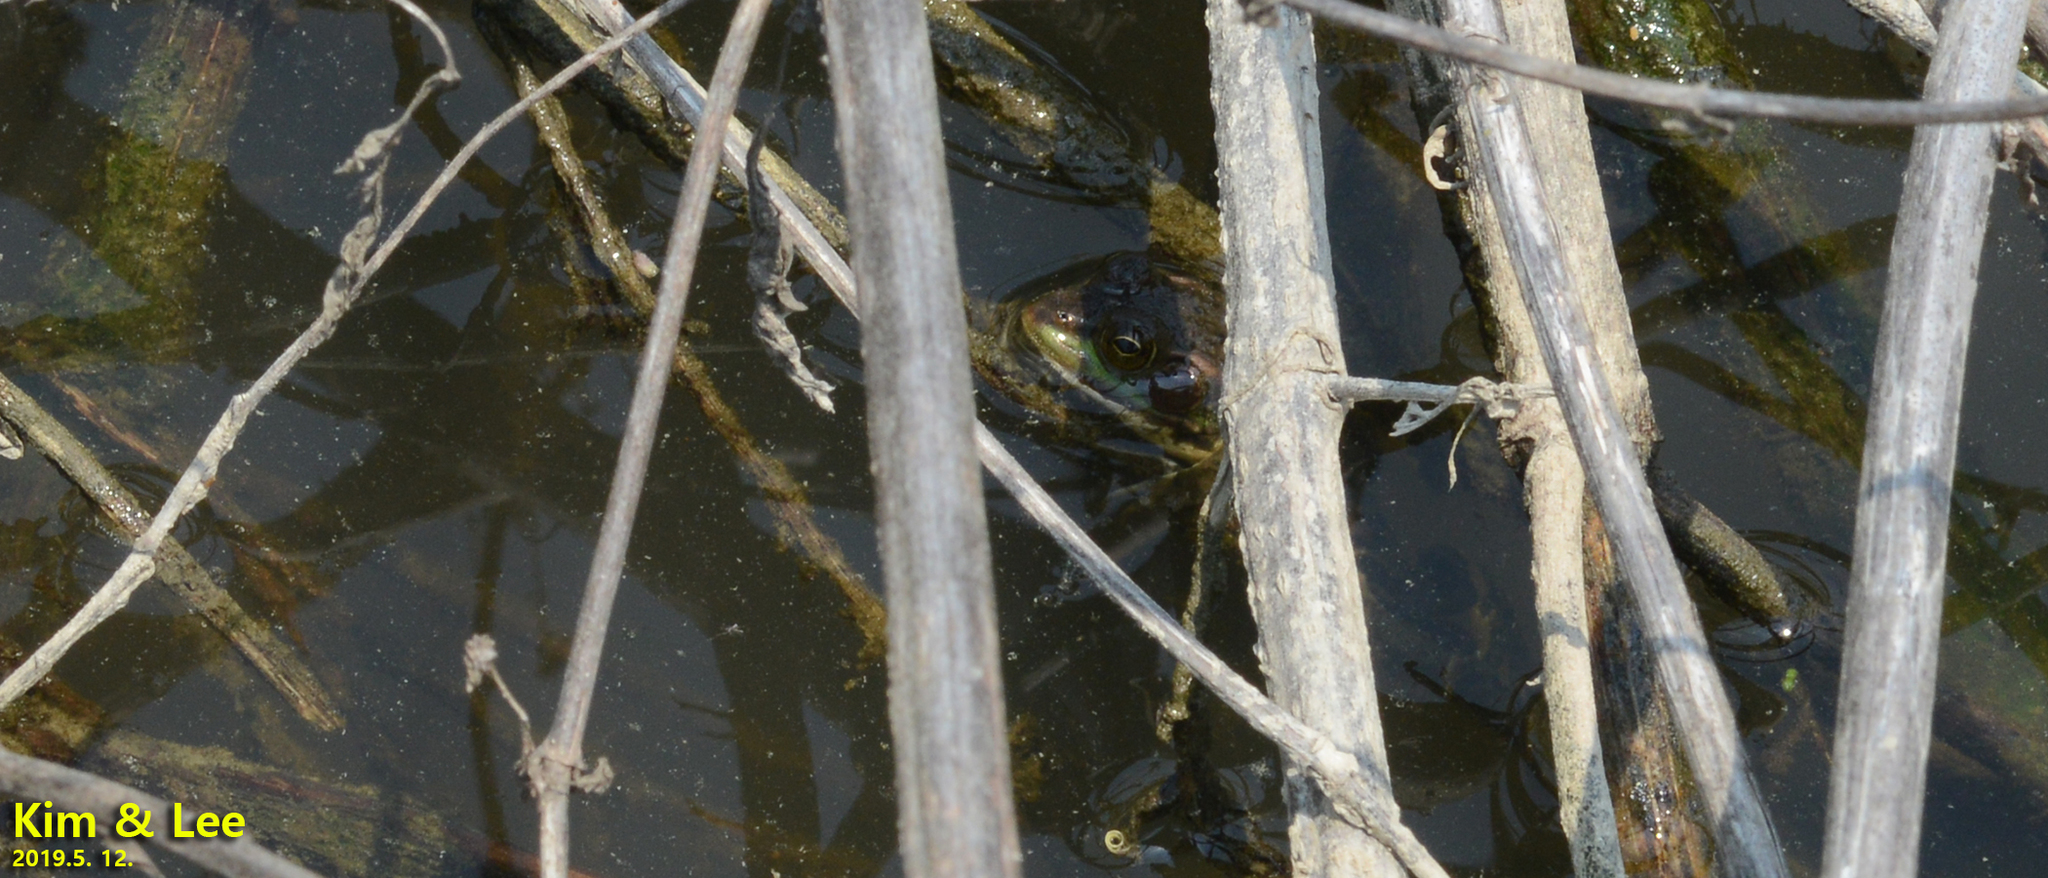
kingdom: Animalia
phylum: Chordata
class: Amphibia
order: Anura
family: Ranidae
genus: Pelophylax
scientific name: Pelophylax chosenicus
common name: Gold-spotted pond frog
